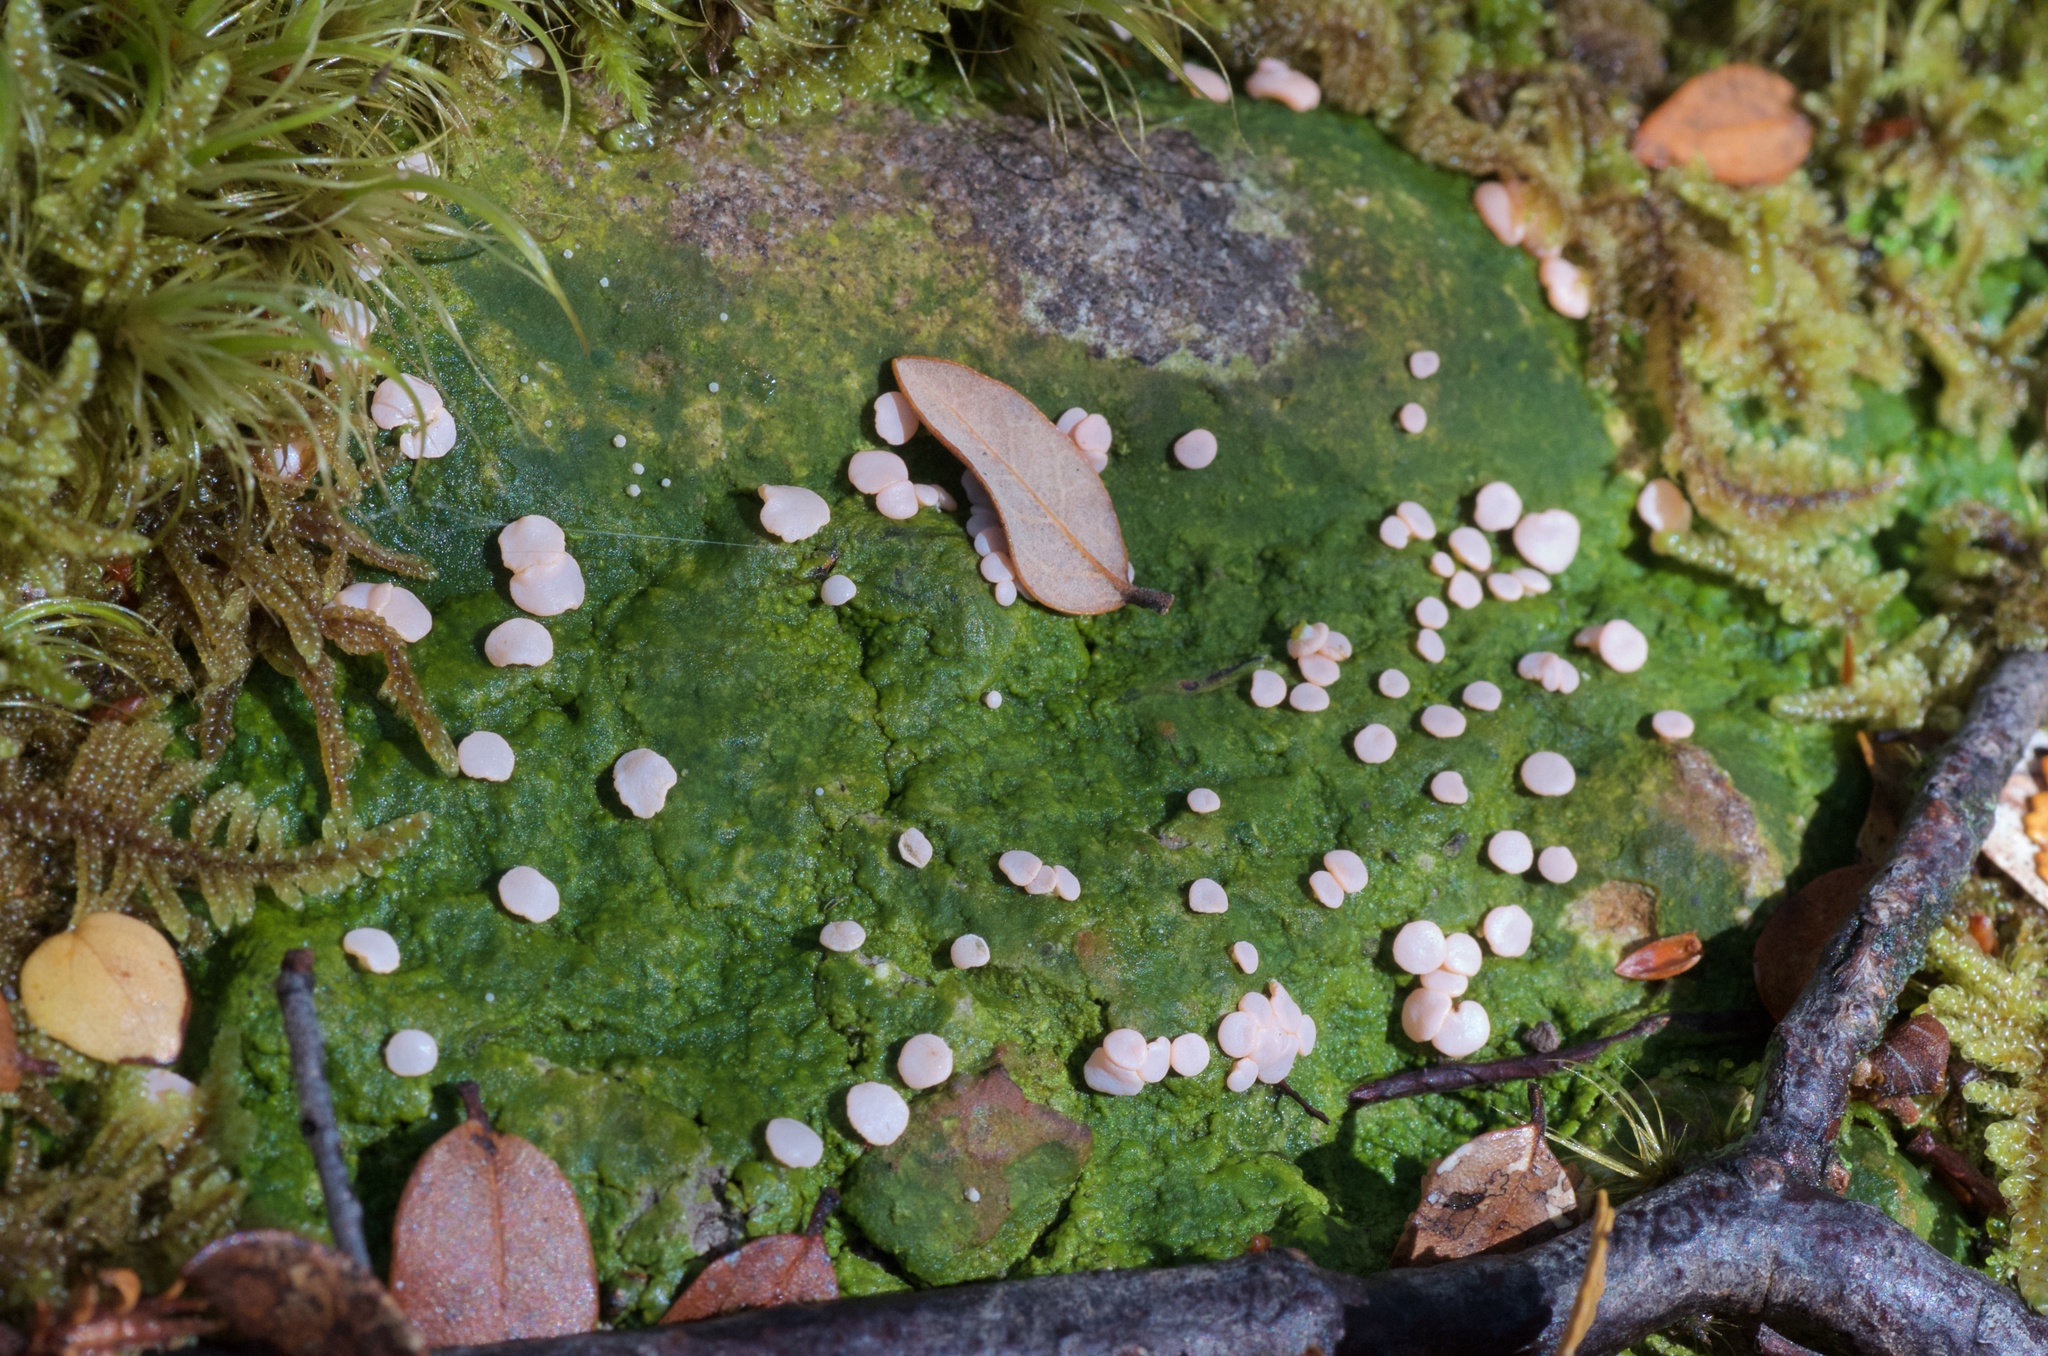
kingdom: Fungi
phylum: Ascomycota
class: Lecanoromycetes
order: Pertusariales
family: Icmadophilaceae
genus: Dibaeis
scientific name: Dibaeis absoluta
